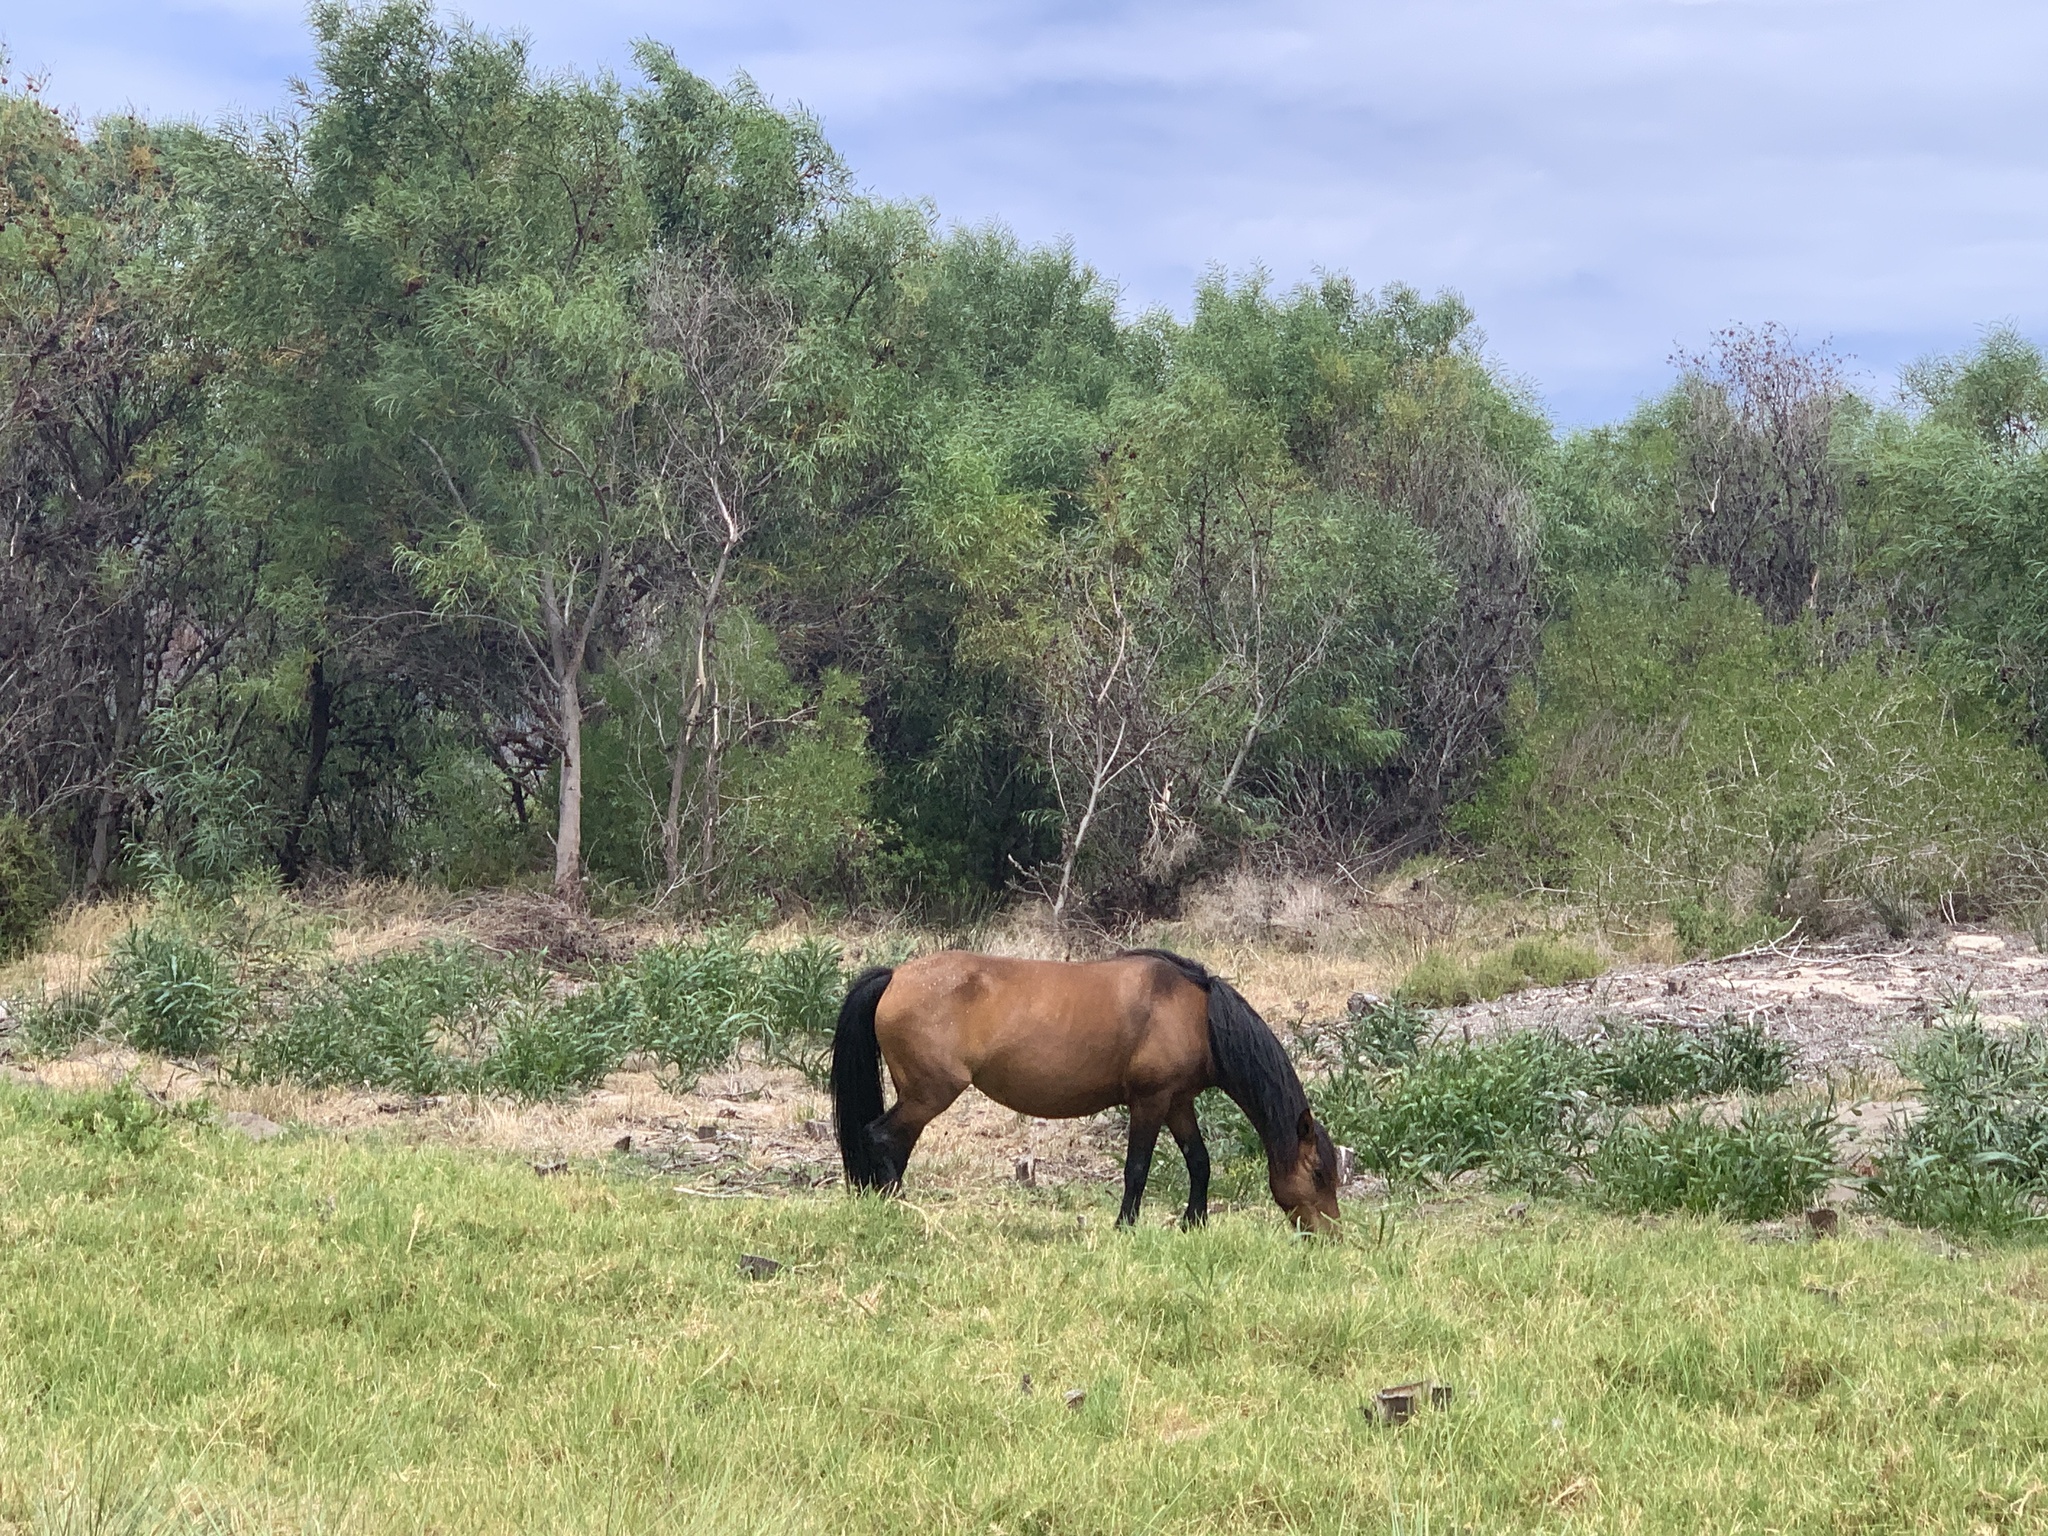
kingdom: Animalia
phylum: Chordata
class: Mammalia
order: Perissodactyla
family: Equidae
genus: Equus
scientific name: Equus caballus
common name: Horse
